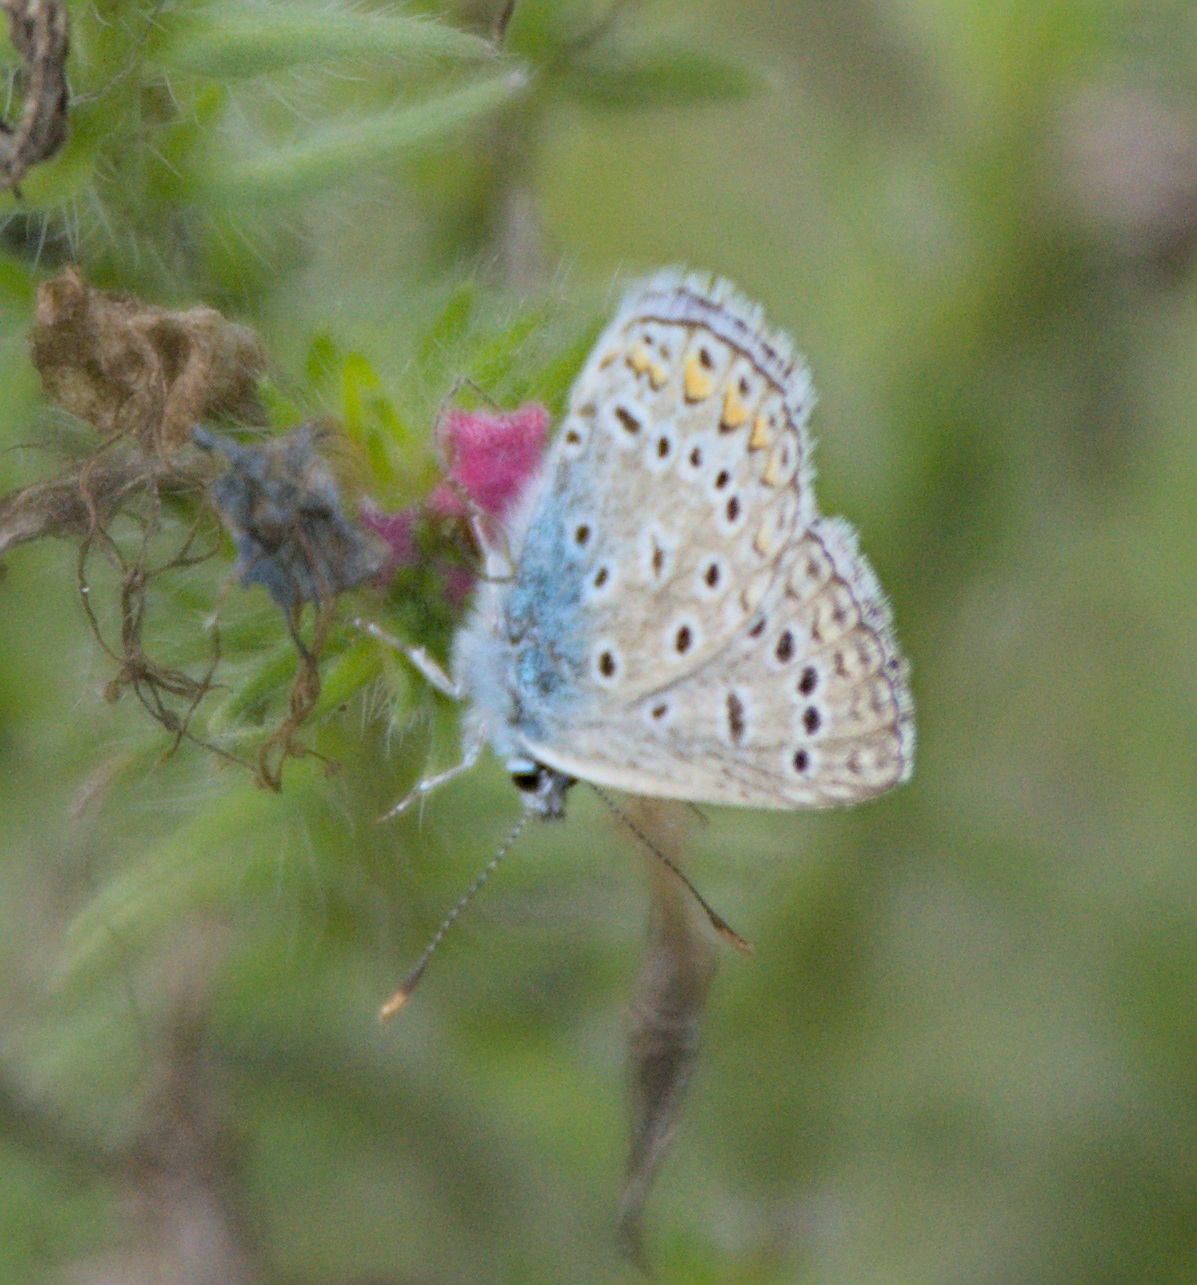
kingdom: Animalia
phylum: Arthropoda
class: Insecta
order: Lepidoptera
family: Lycaenidae
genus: Polyommatus
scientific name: Polyommatus icarus
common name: Common blue
